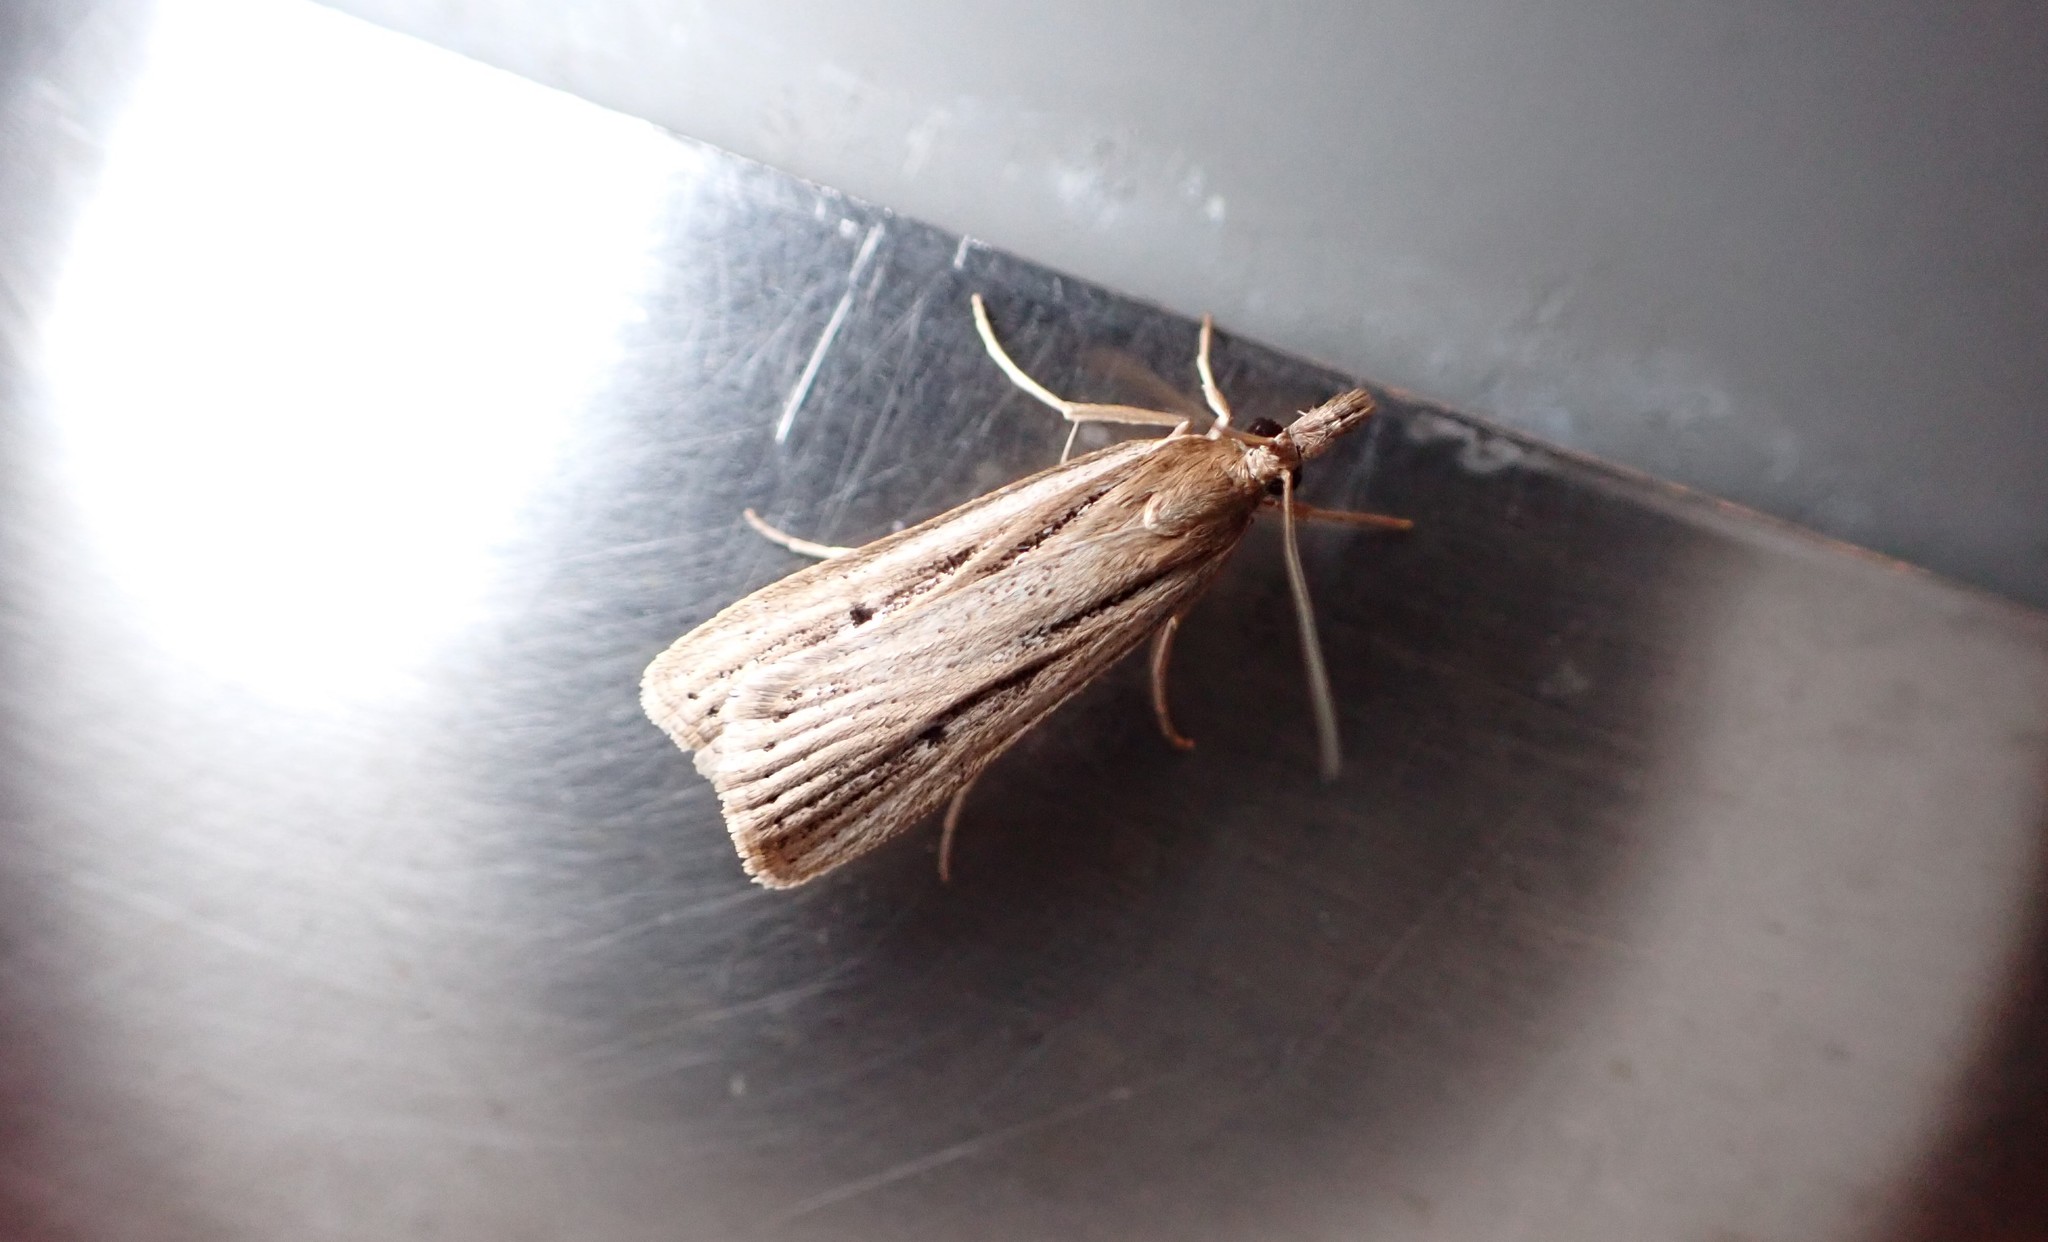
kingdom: Animalia
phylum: Arthropoda
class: Insecta
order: Lepidoptera
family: Crambidae
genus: Eudonia
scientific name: Eudonia sabulosella
